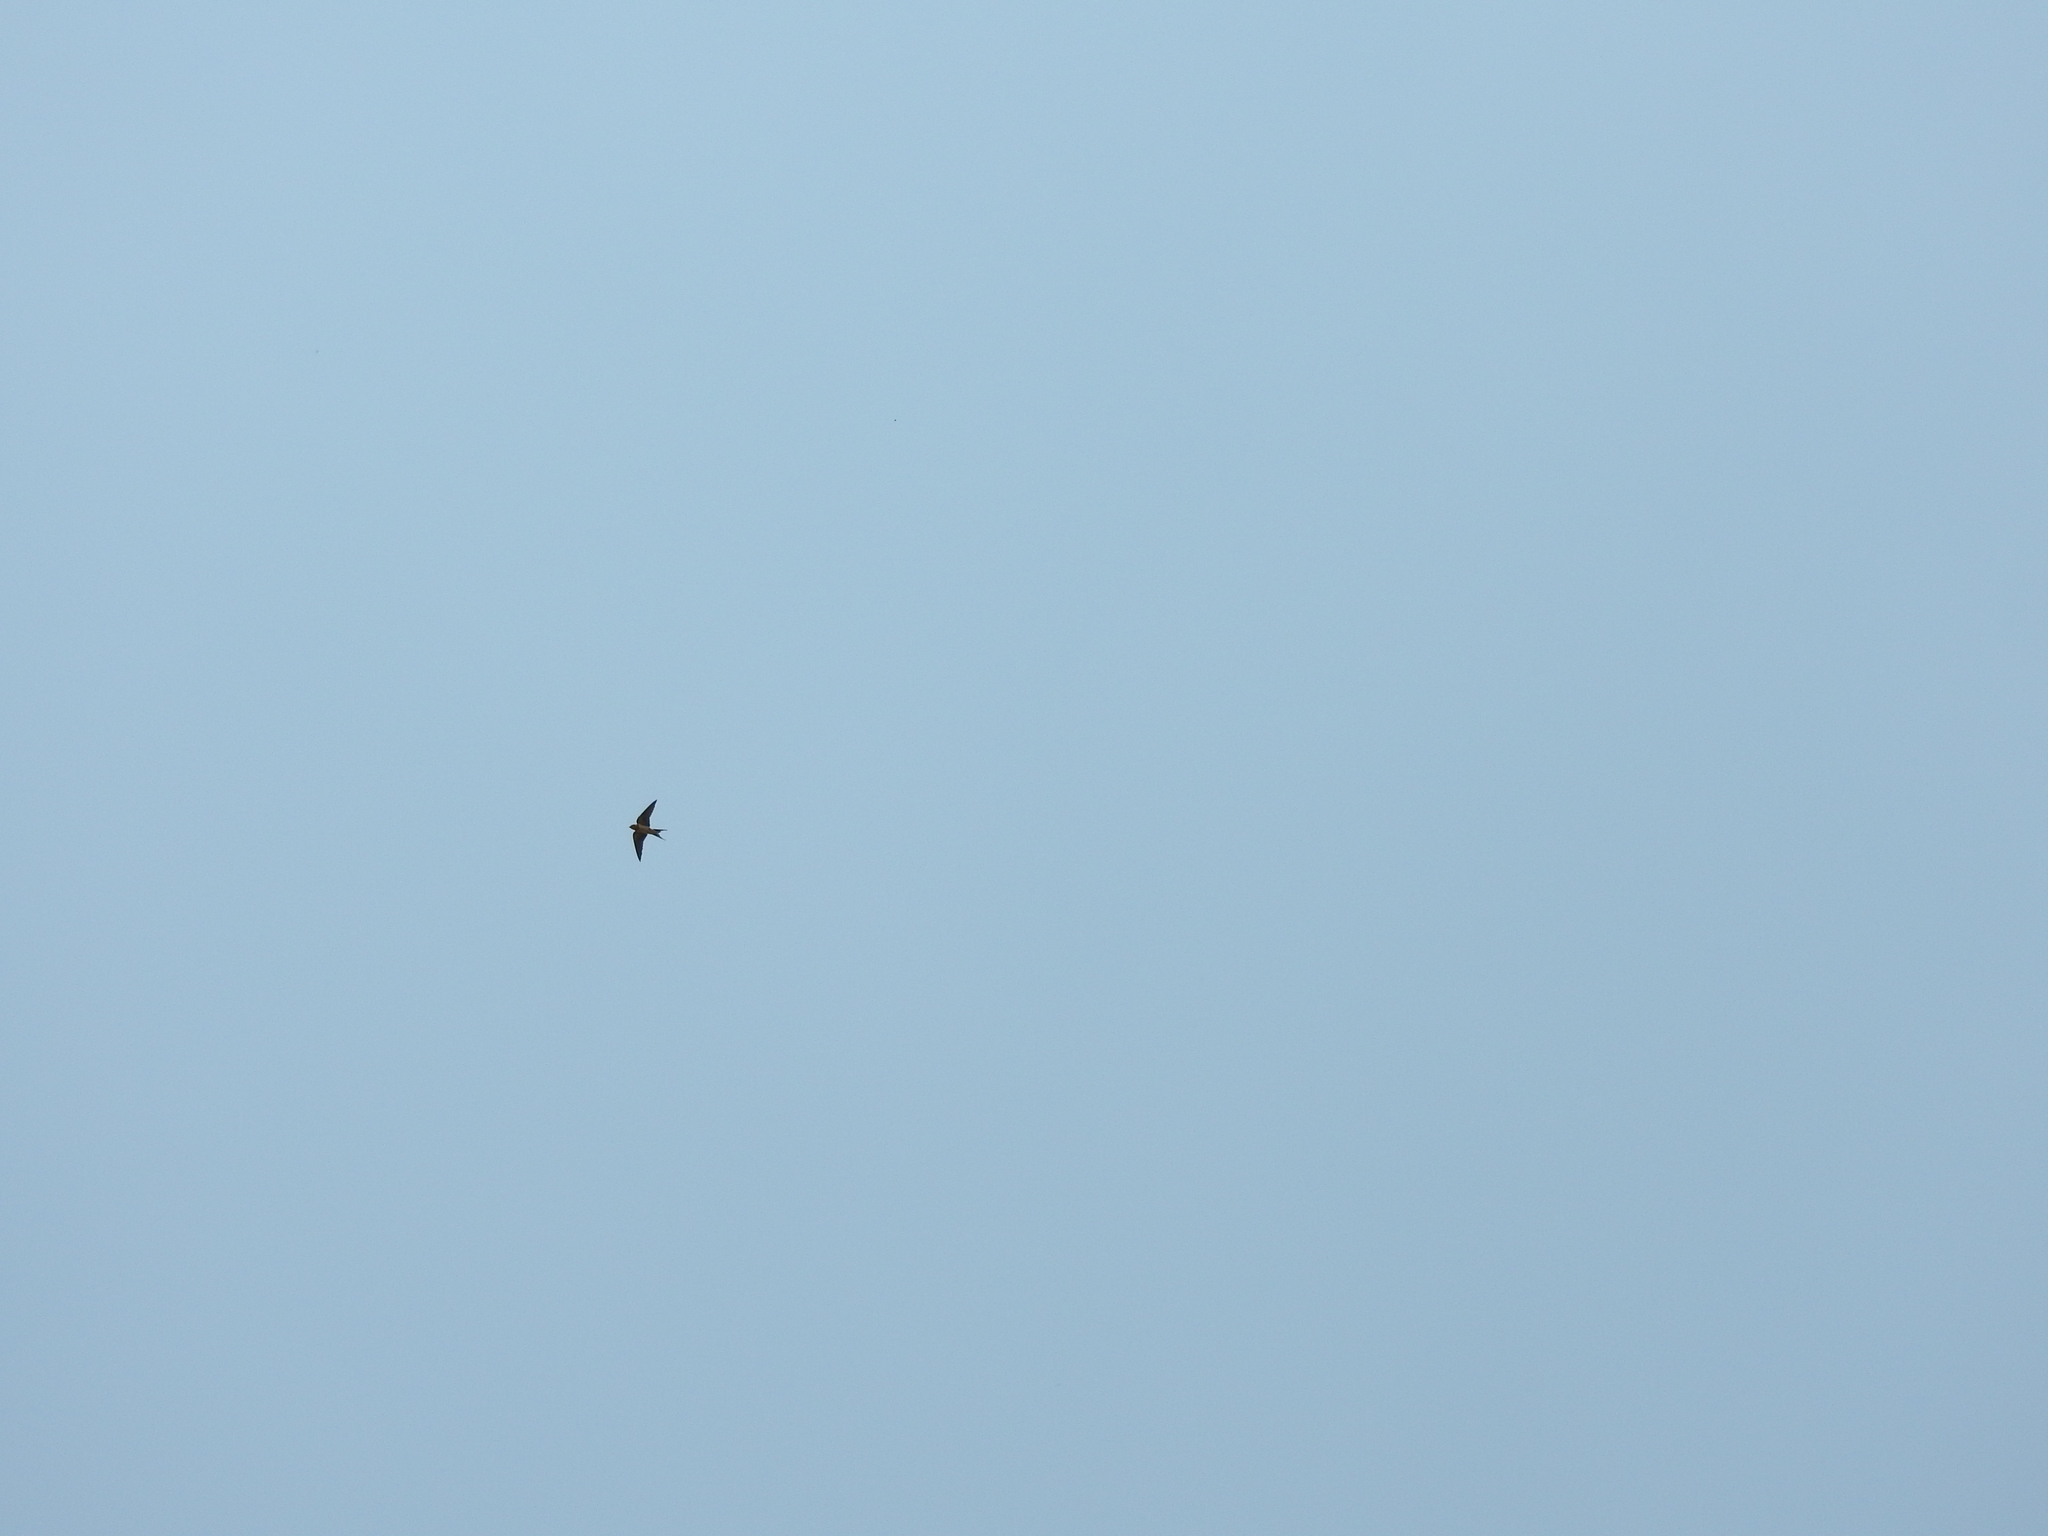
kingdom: Animalia
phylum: Chordata
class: Aves
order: Passeriformes
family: Hirundinidae
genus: Hirundo
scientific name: Hirundo rustica
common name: Barn swallow
